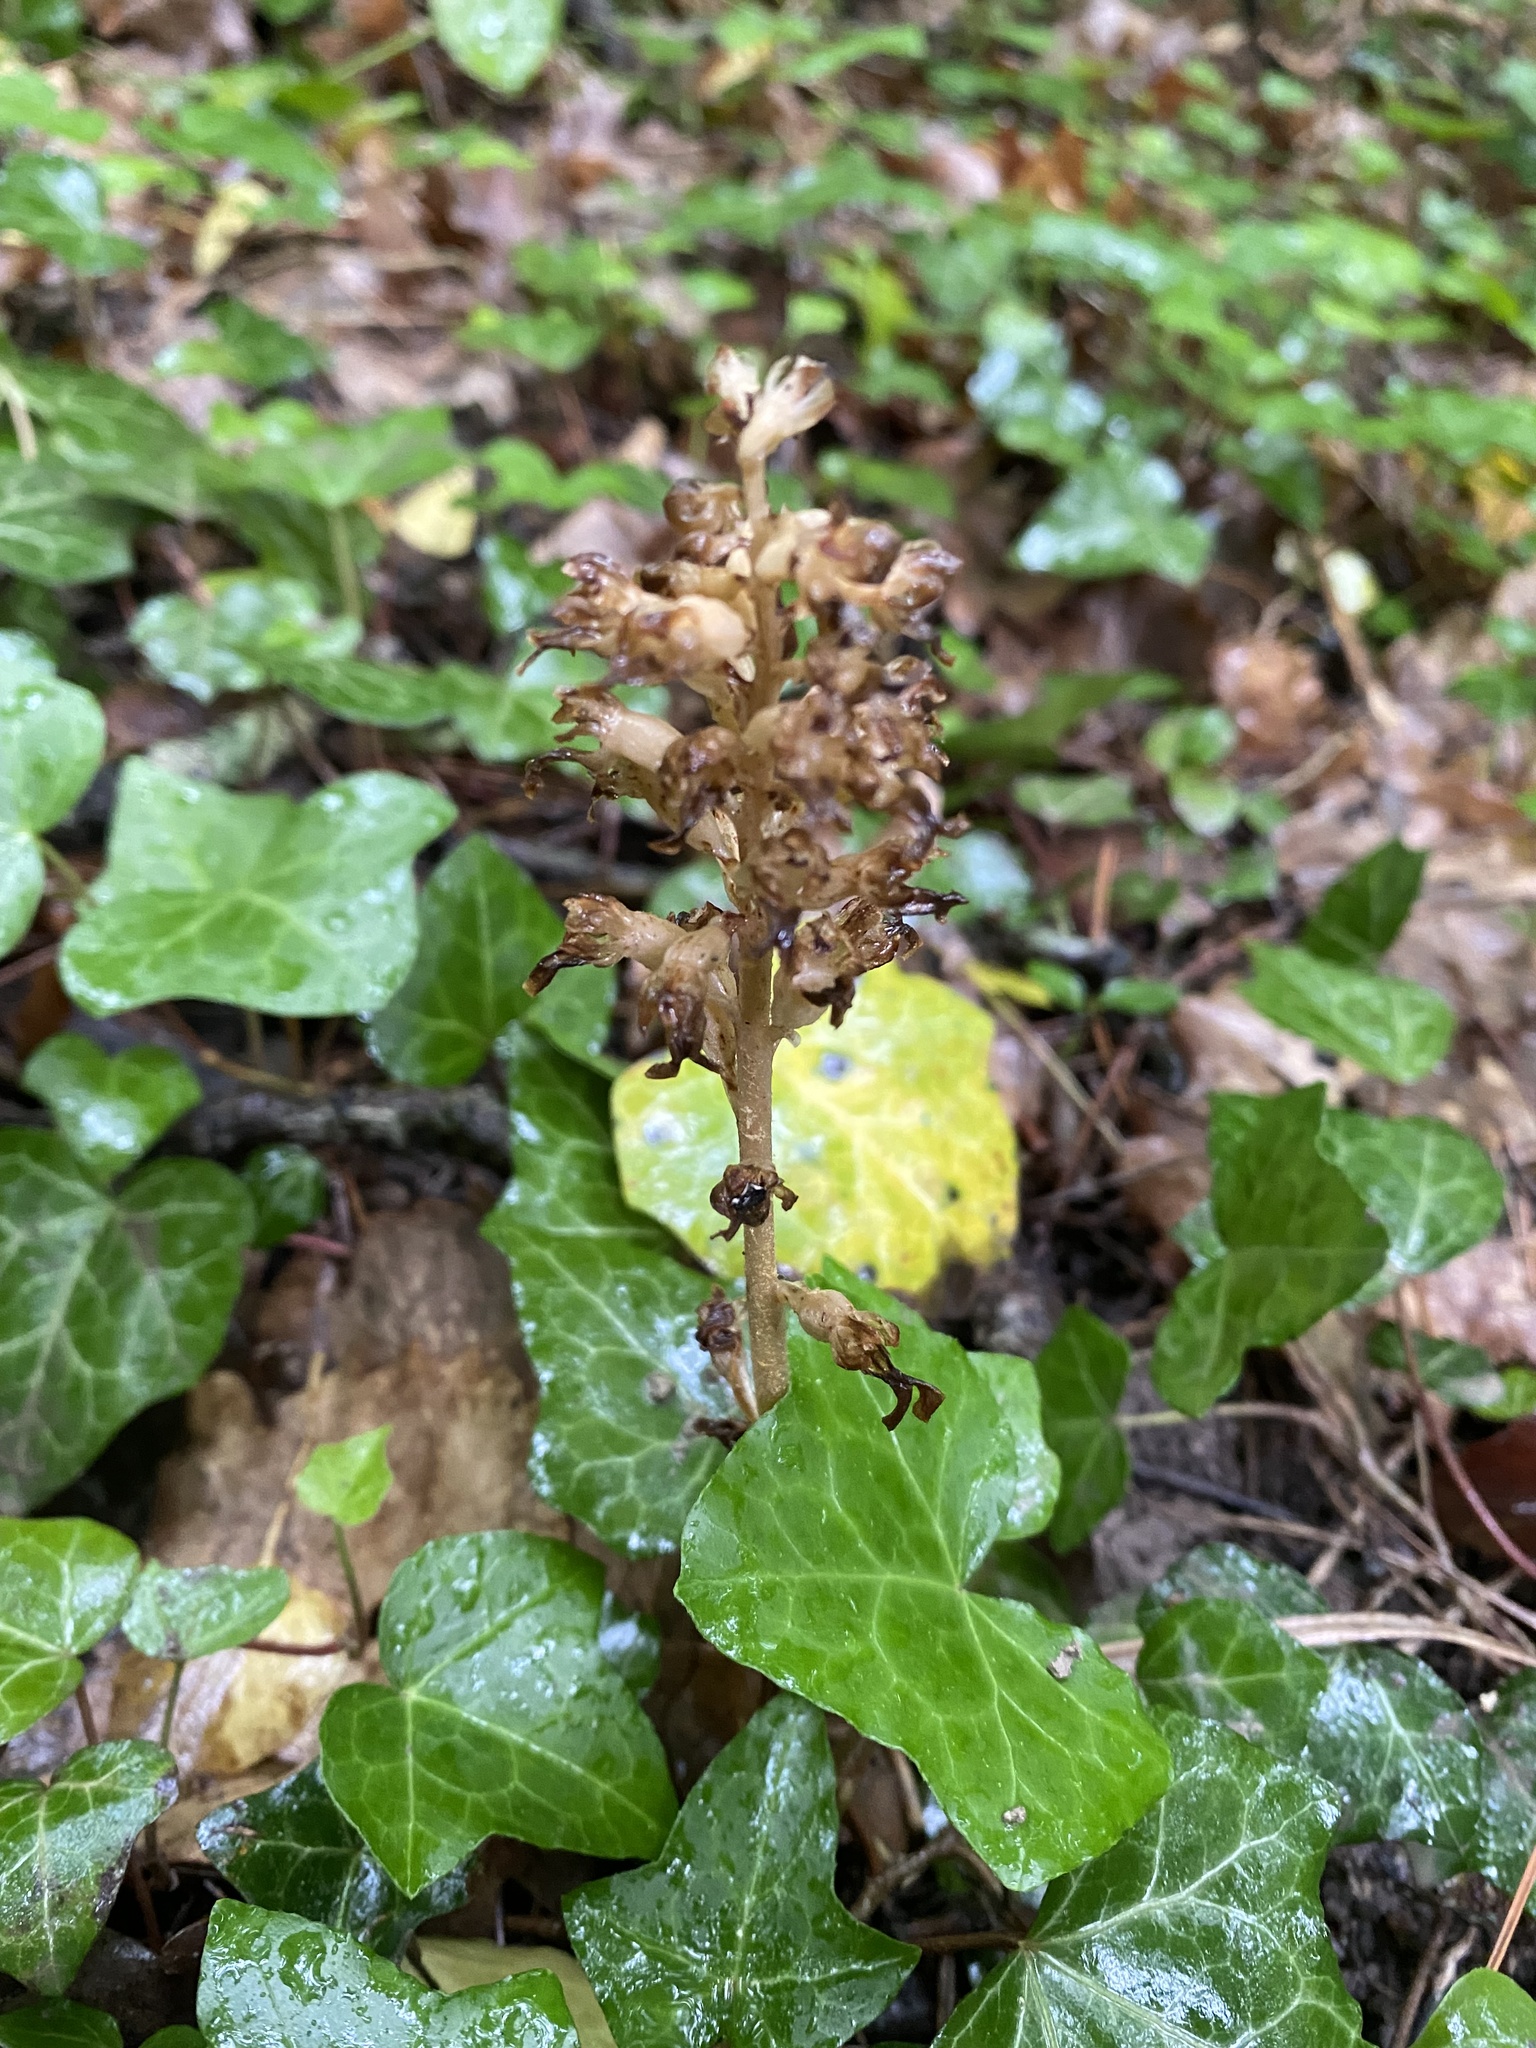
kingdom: Plantae
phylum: Tracheophyta
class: Liliopsida
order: Asparagales
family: Orchidaceae
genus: Neottia
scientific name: Neottia nidus-avis
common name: Bird's-nest orchid
